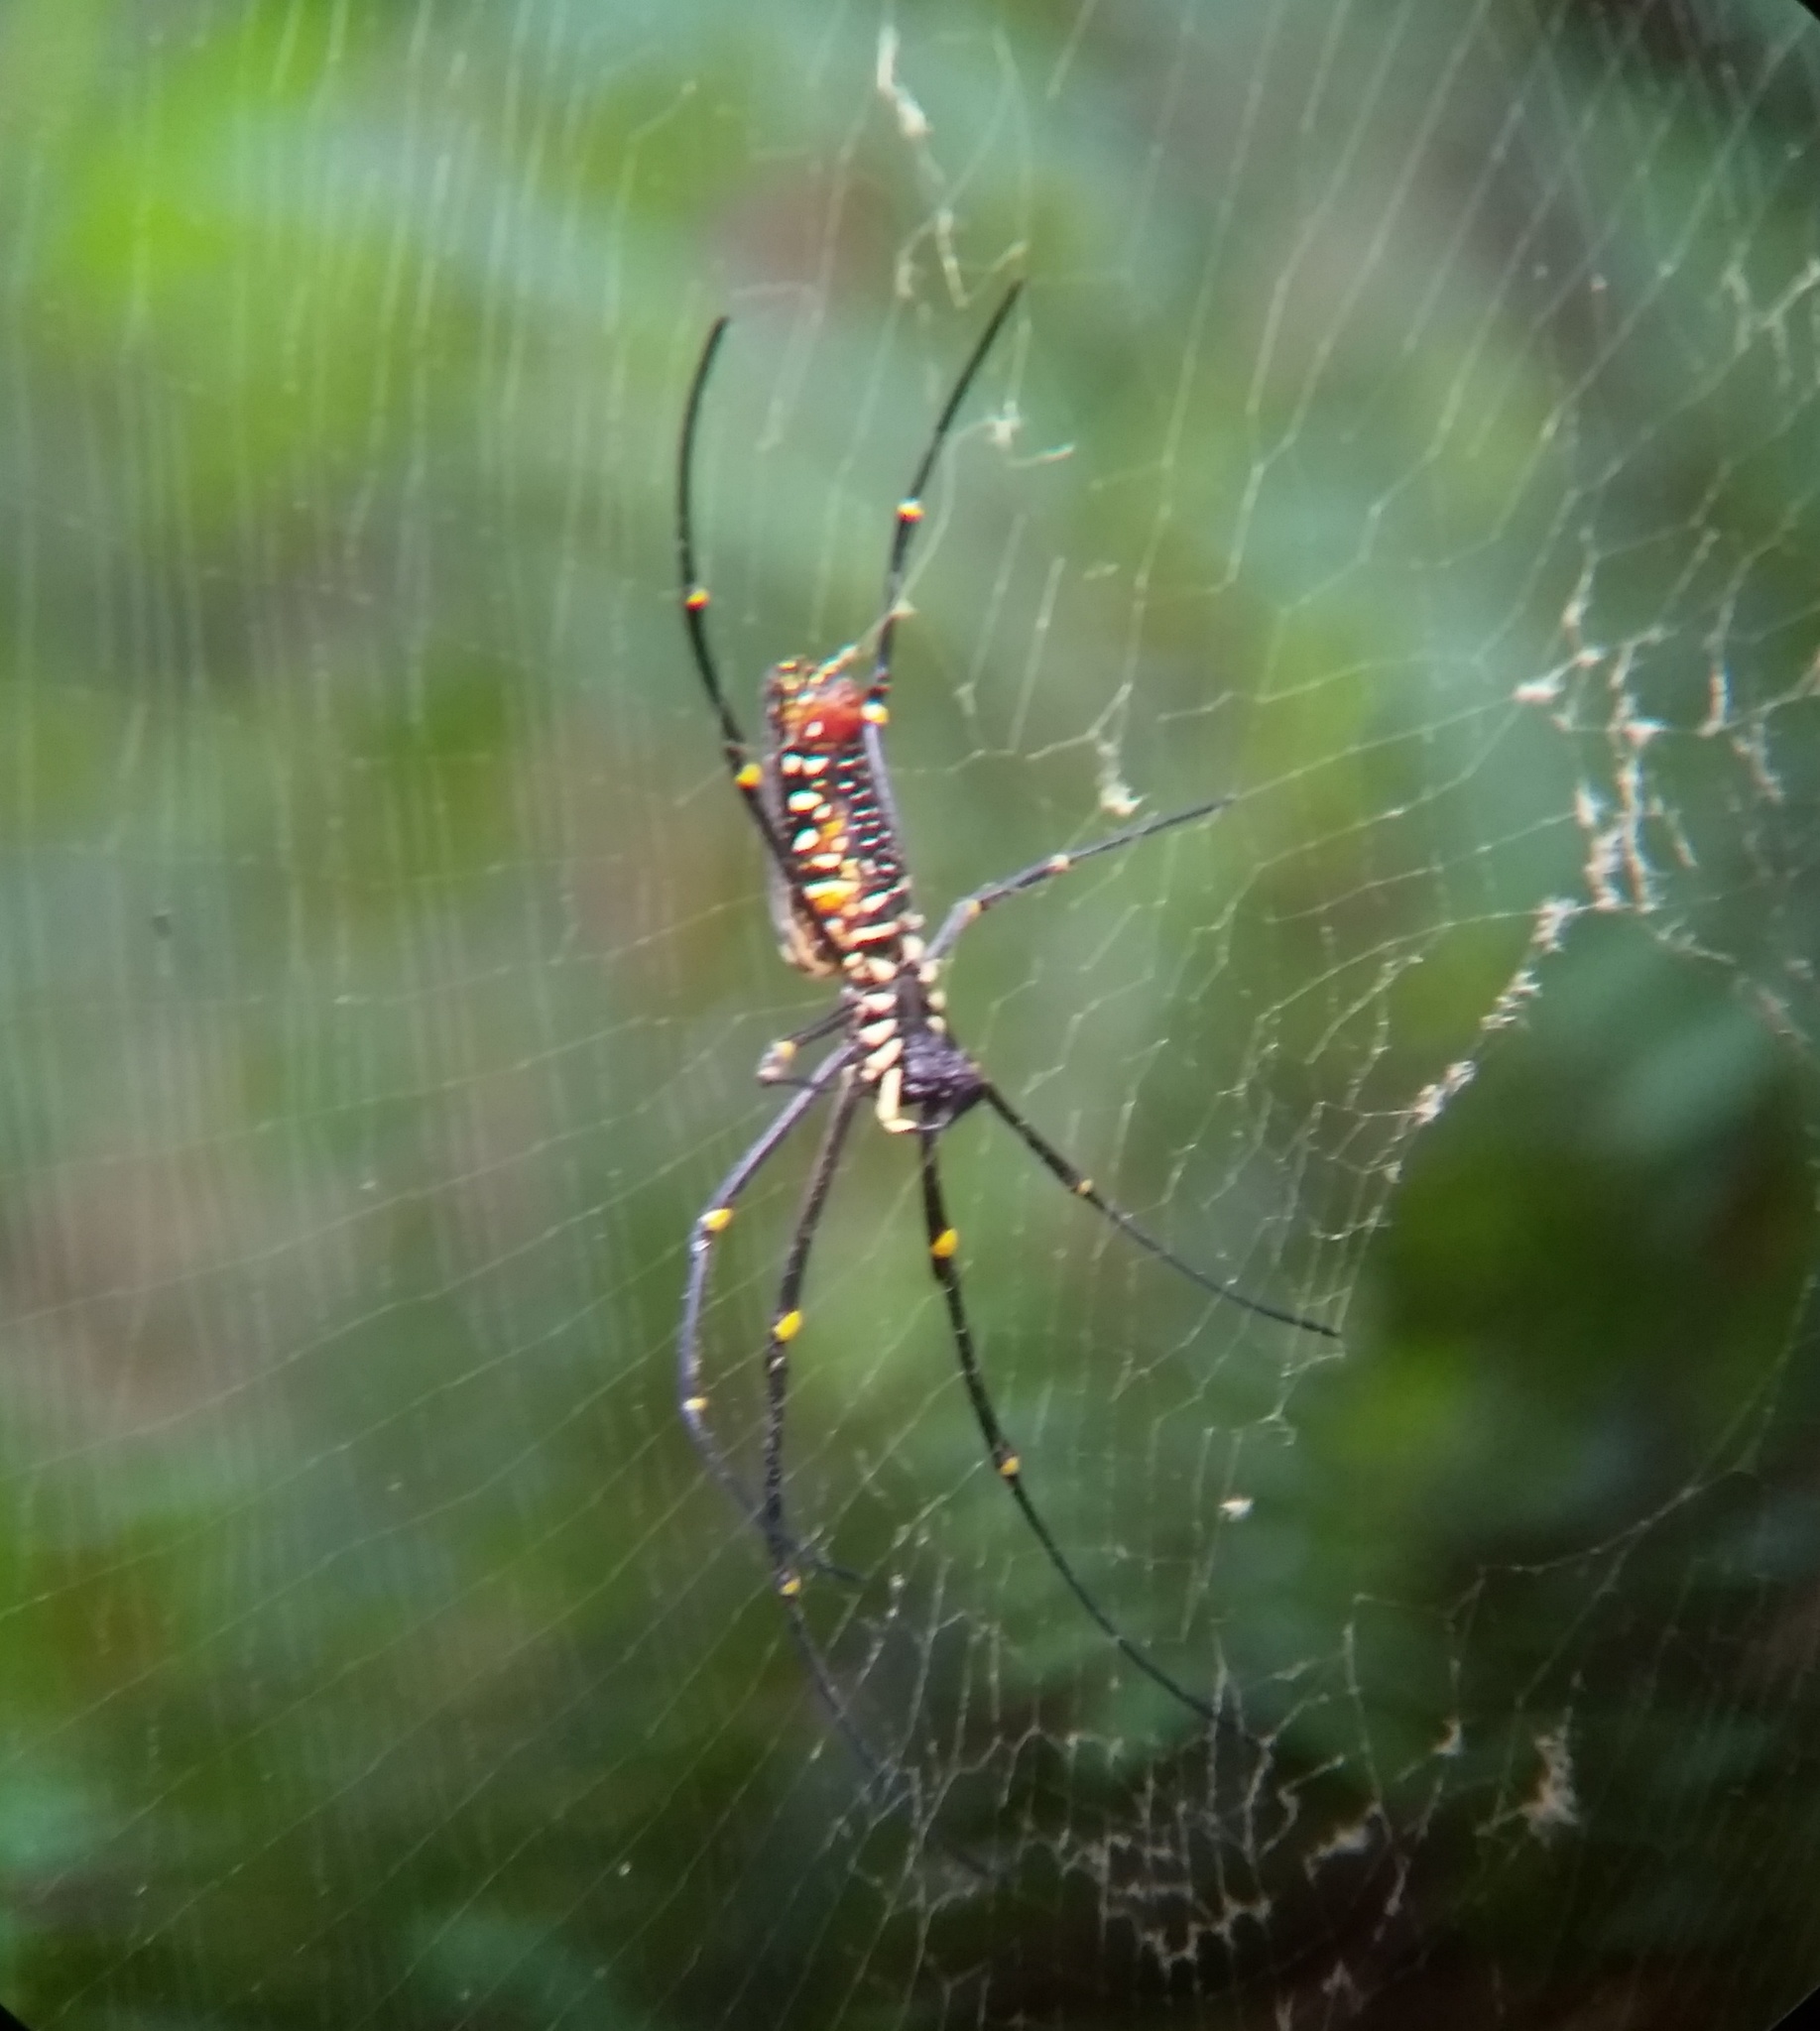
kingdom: Animalia
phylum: Arthropoda
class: Arachnida
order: Araneae
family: Araneidae
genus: Nephila
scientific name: Nephila pilipes
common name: Giant golden orb weaver
